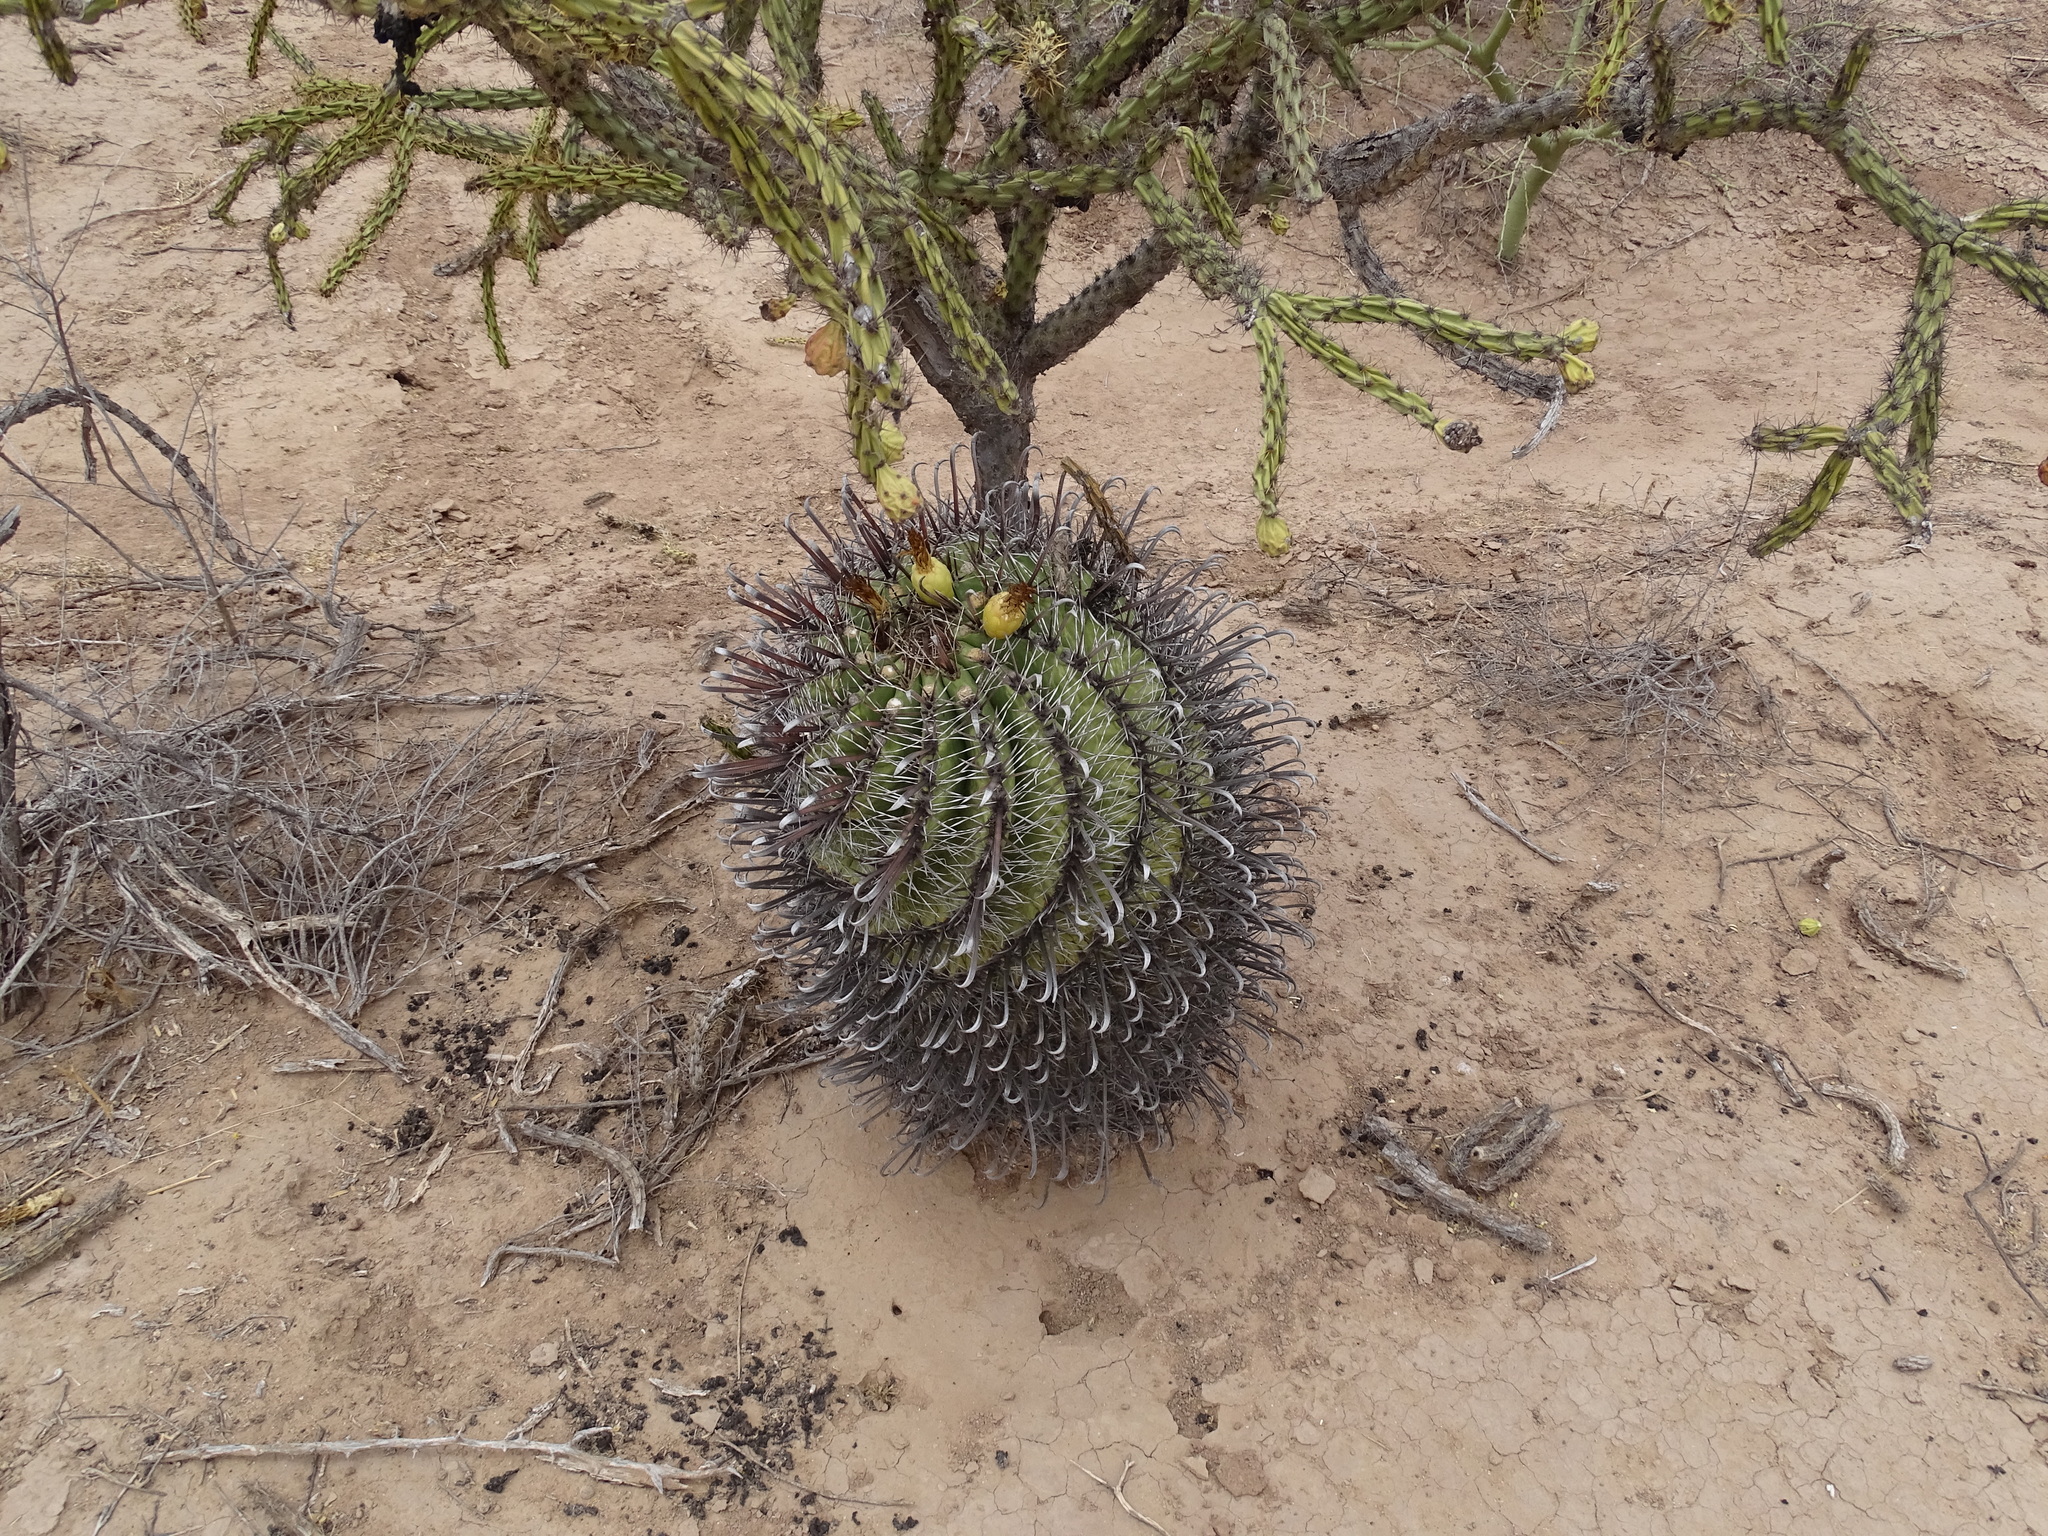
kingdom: Plantae
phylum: Tracheophyta
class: Magnoliopsida
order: Caryophyllales
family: Cactaceae
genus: Ferocactus
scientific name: Ferocactus wislizeni
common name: Candy barrel cactus
